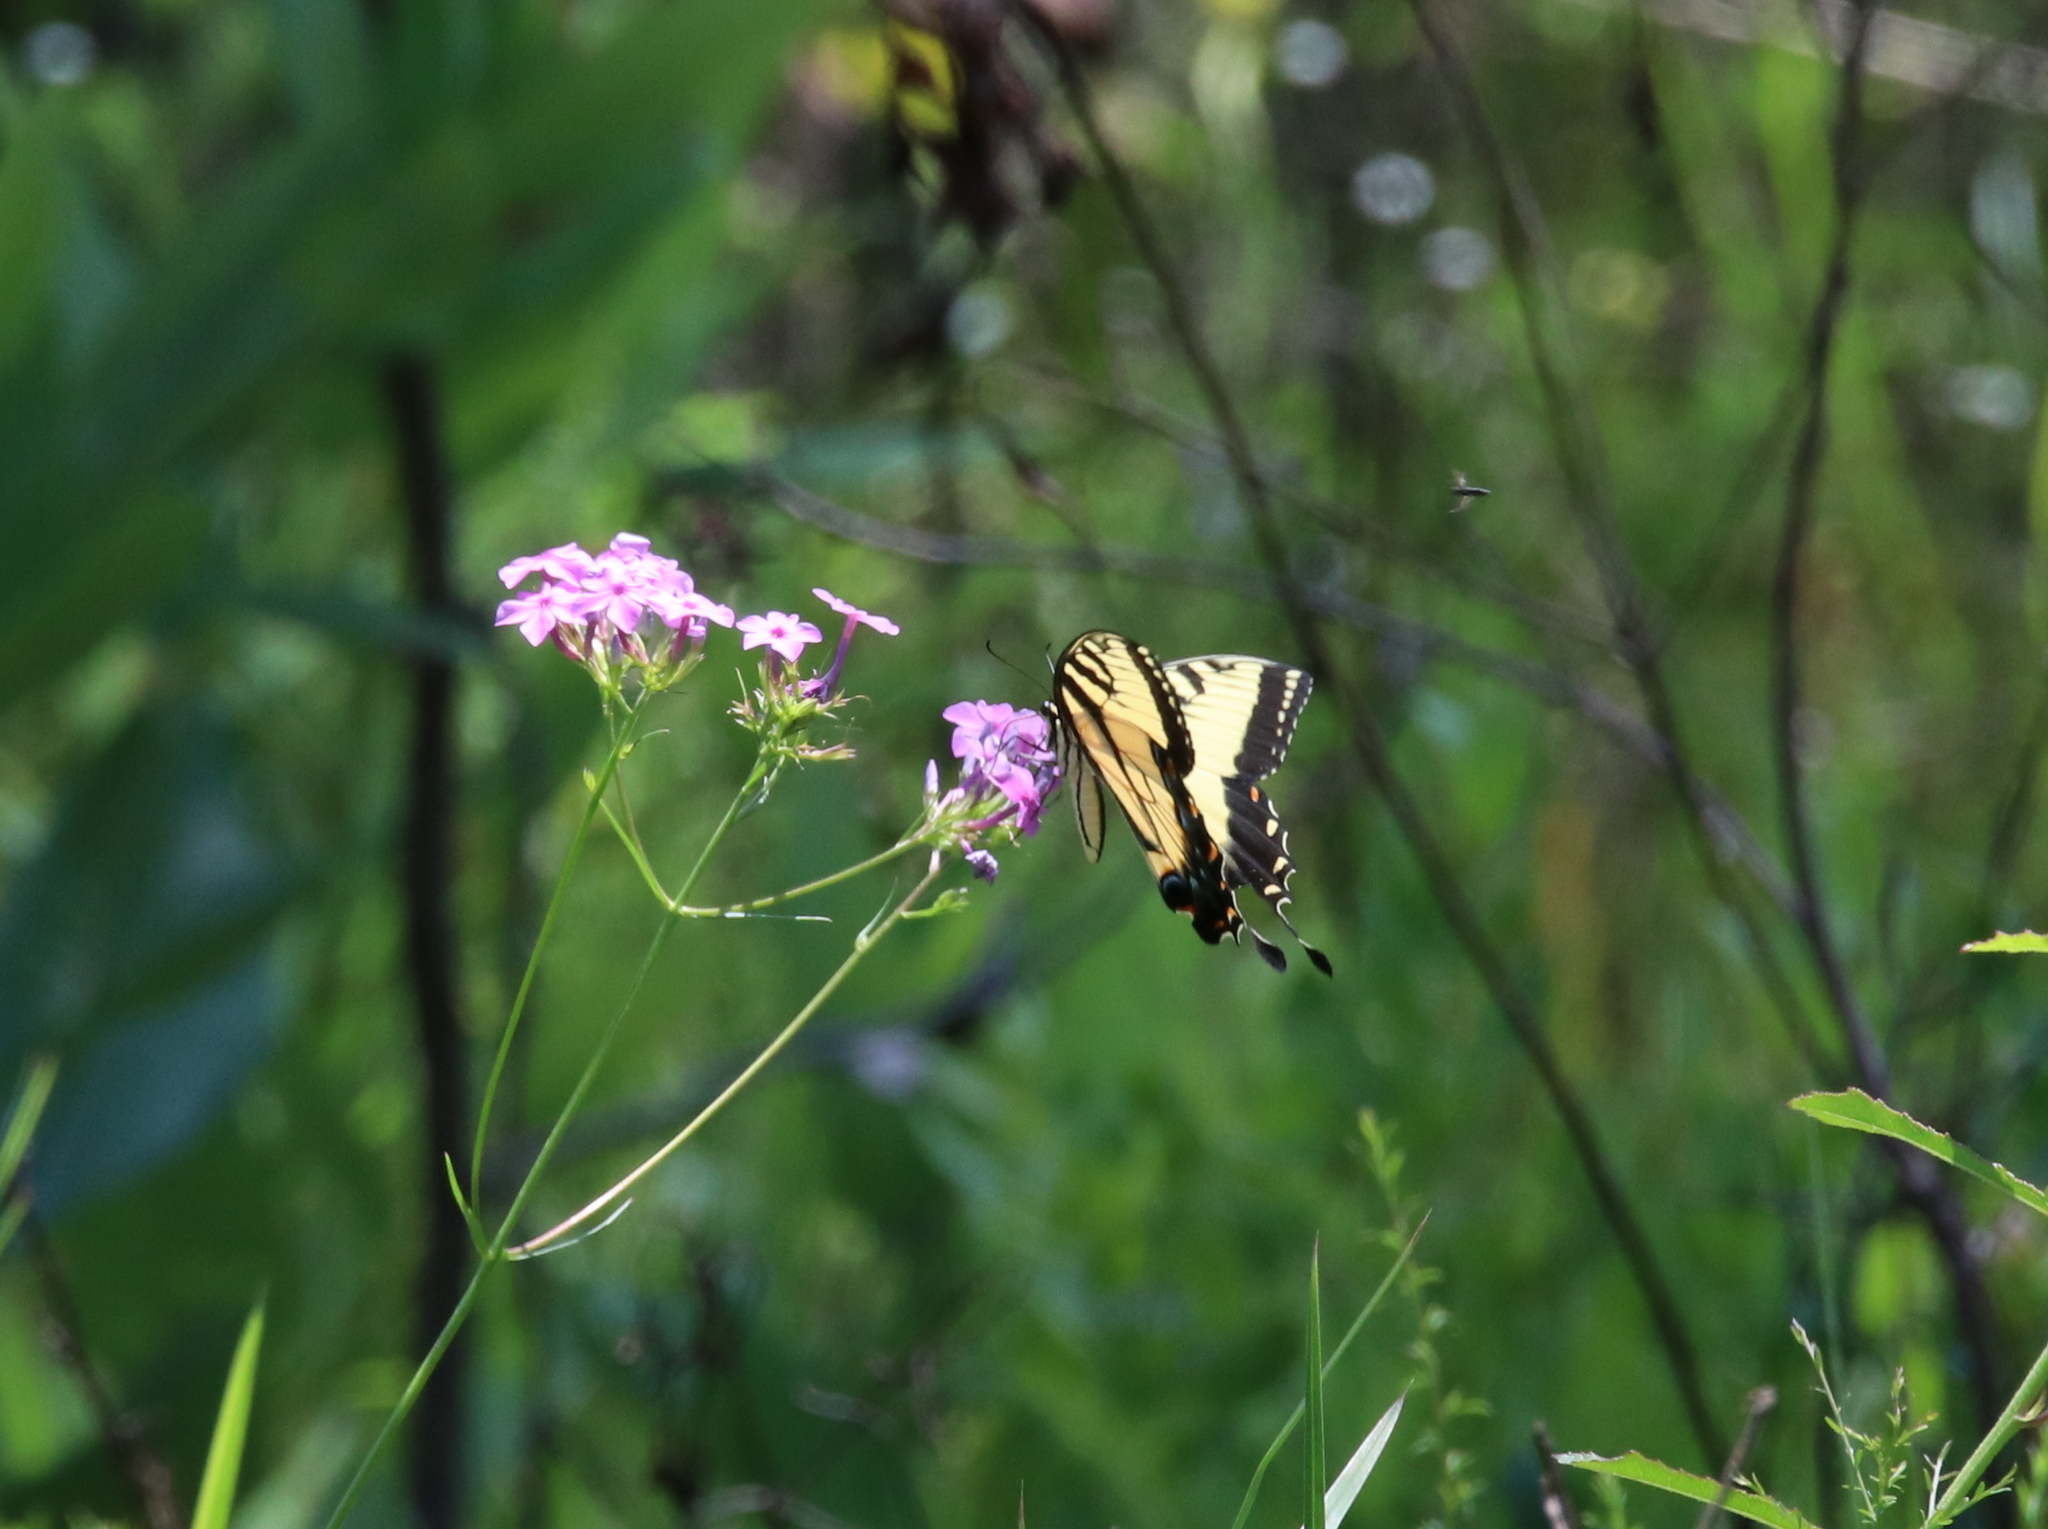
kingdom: Animalia
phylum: Arthropoda
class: Insecta
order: Lepidoptera
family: Papilionidae
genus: Papilio
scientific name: Papilio glaucus
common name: Tiger swallowtail
